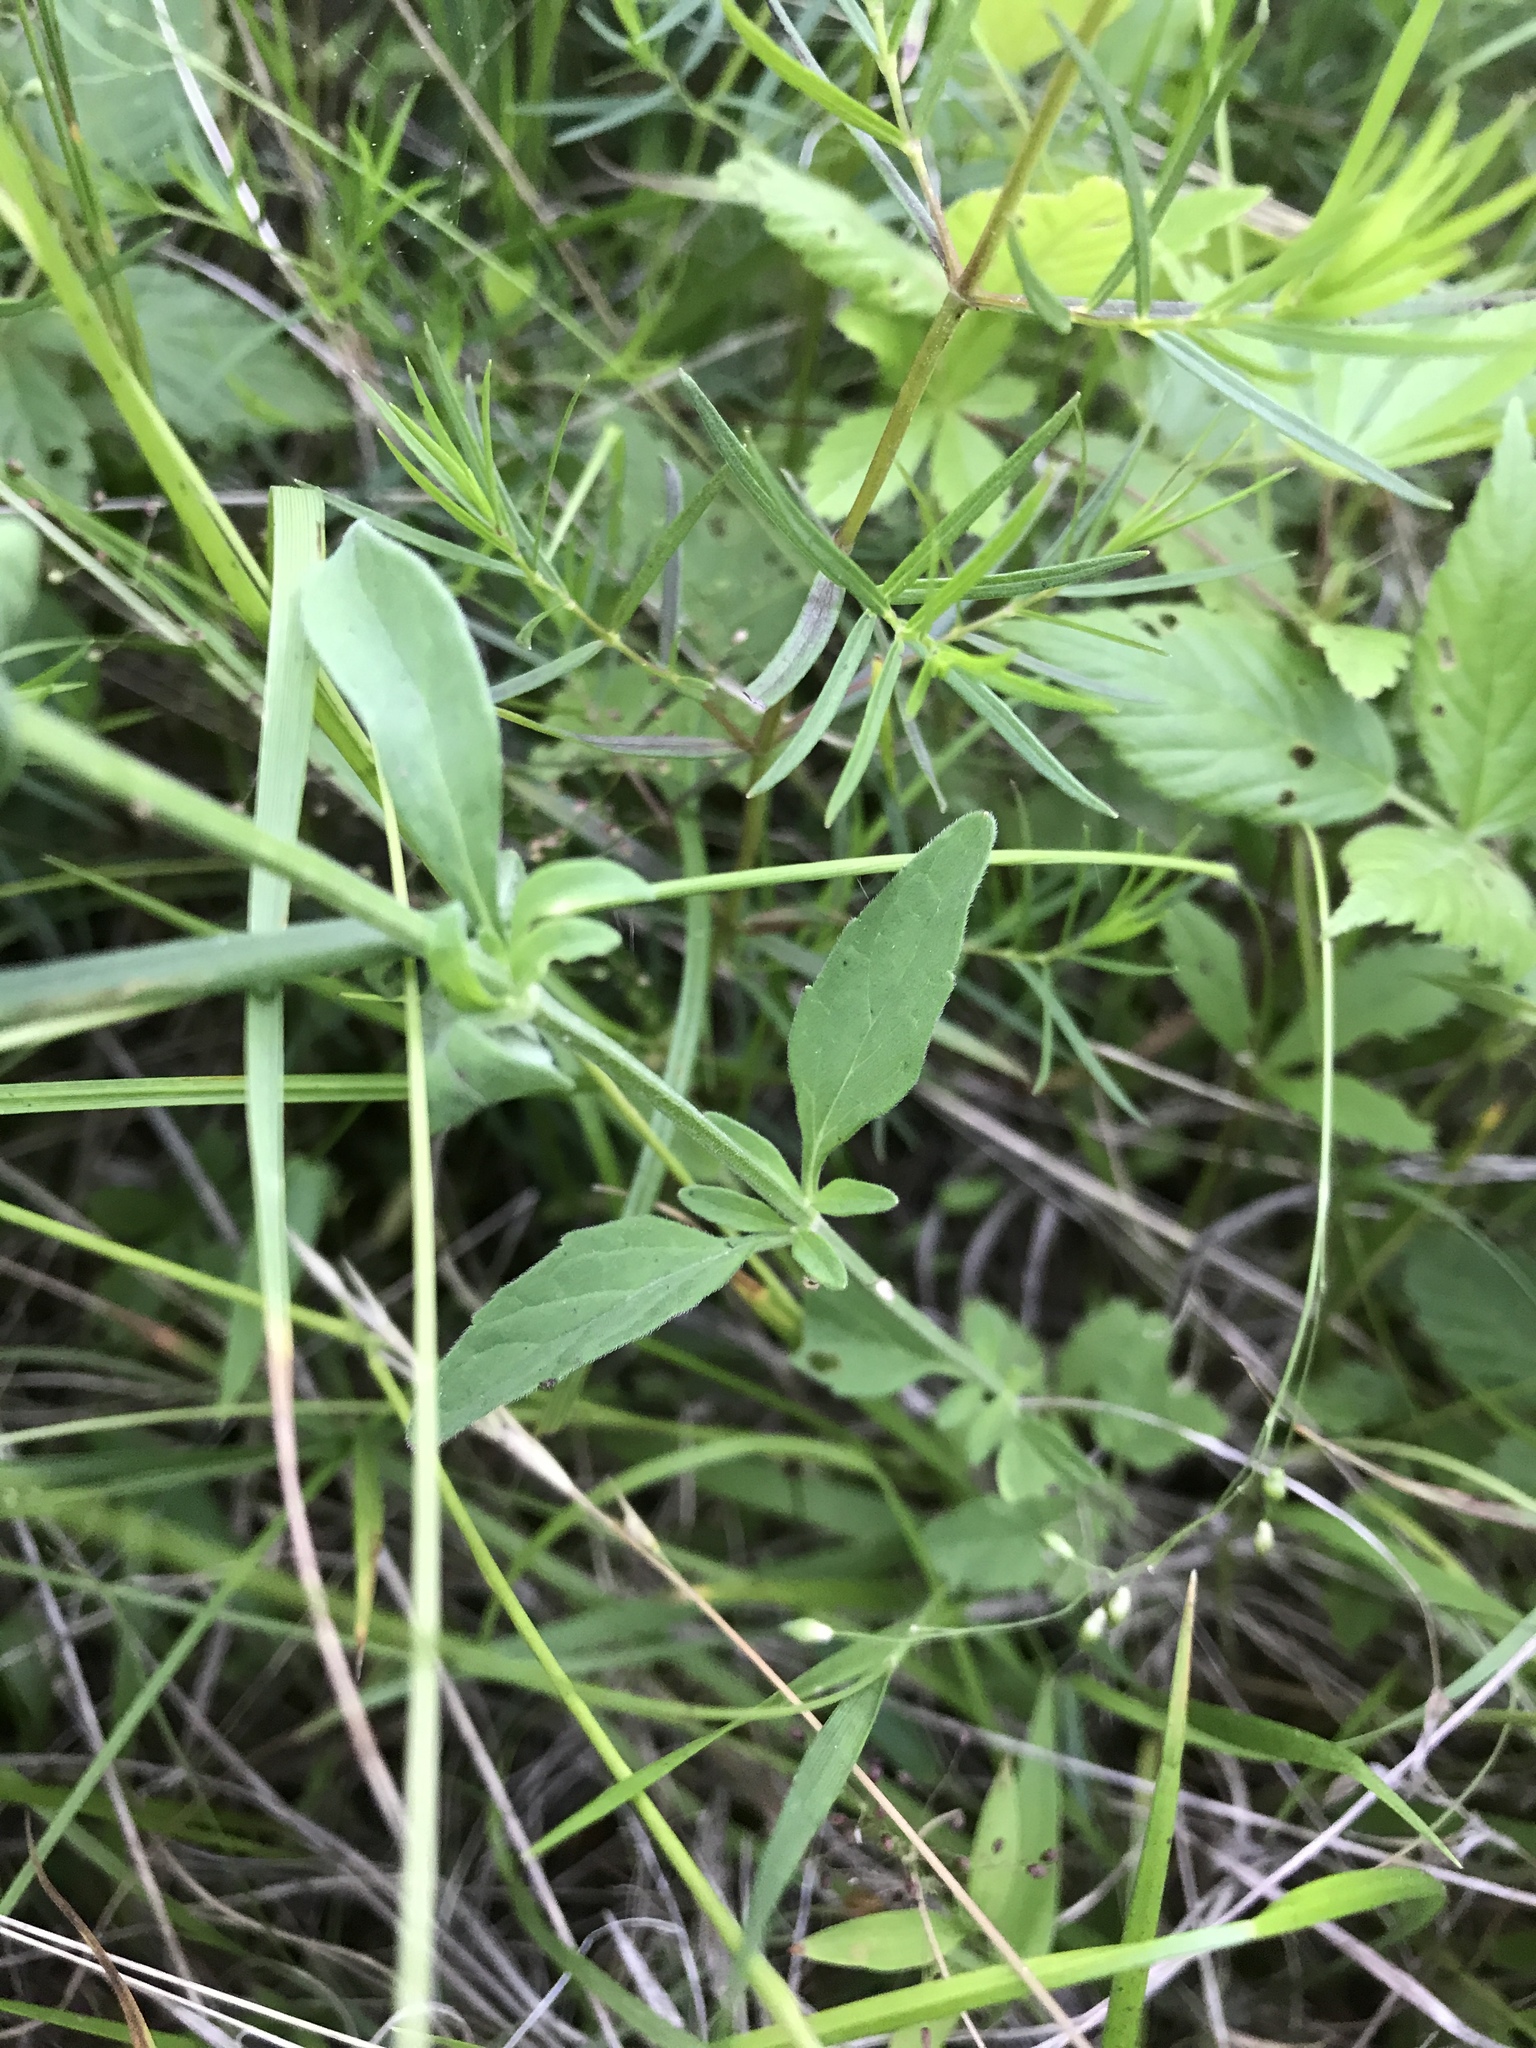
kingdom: Plantae
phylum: Tracheophyta
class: Magnoliopsida
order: Lamiales
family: Lamiaceae
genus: Scutellaria
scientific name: Scutellaria integrifolia
